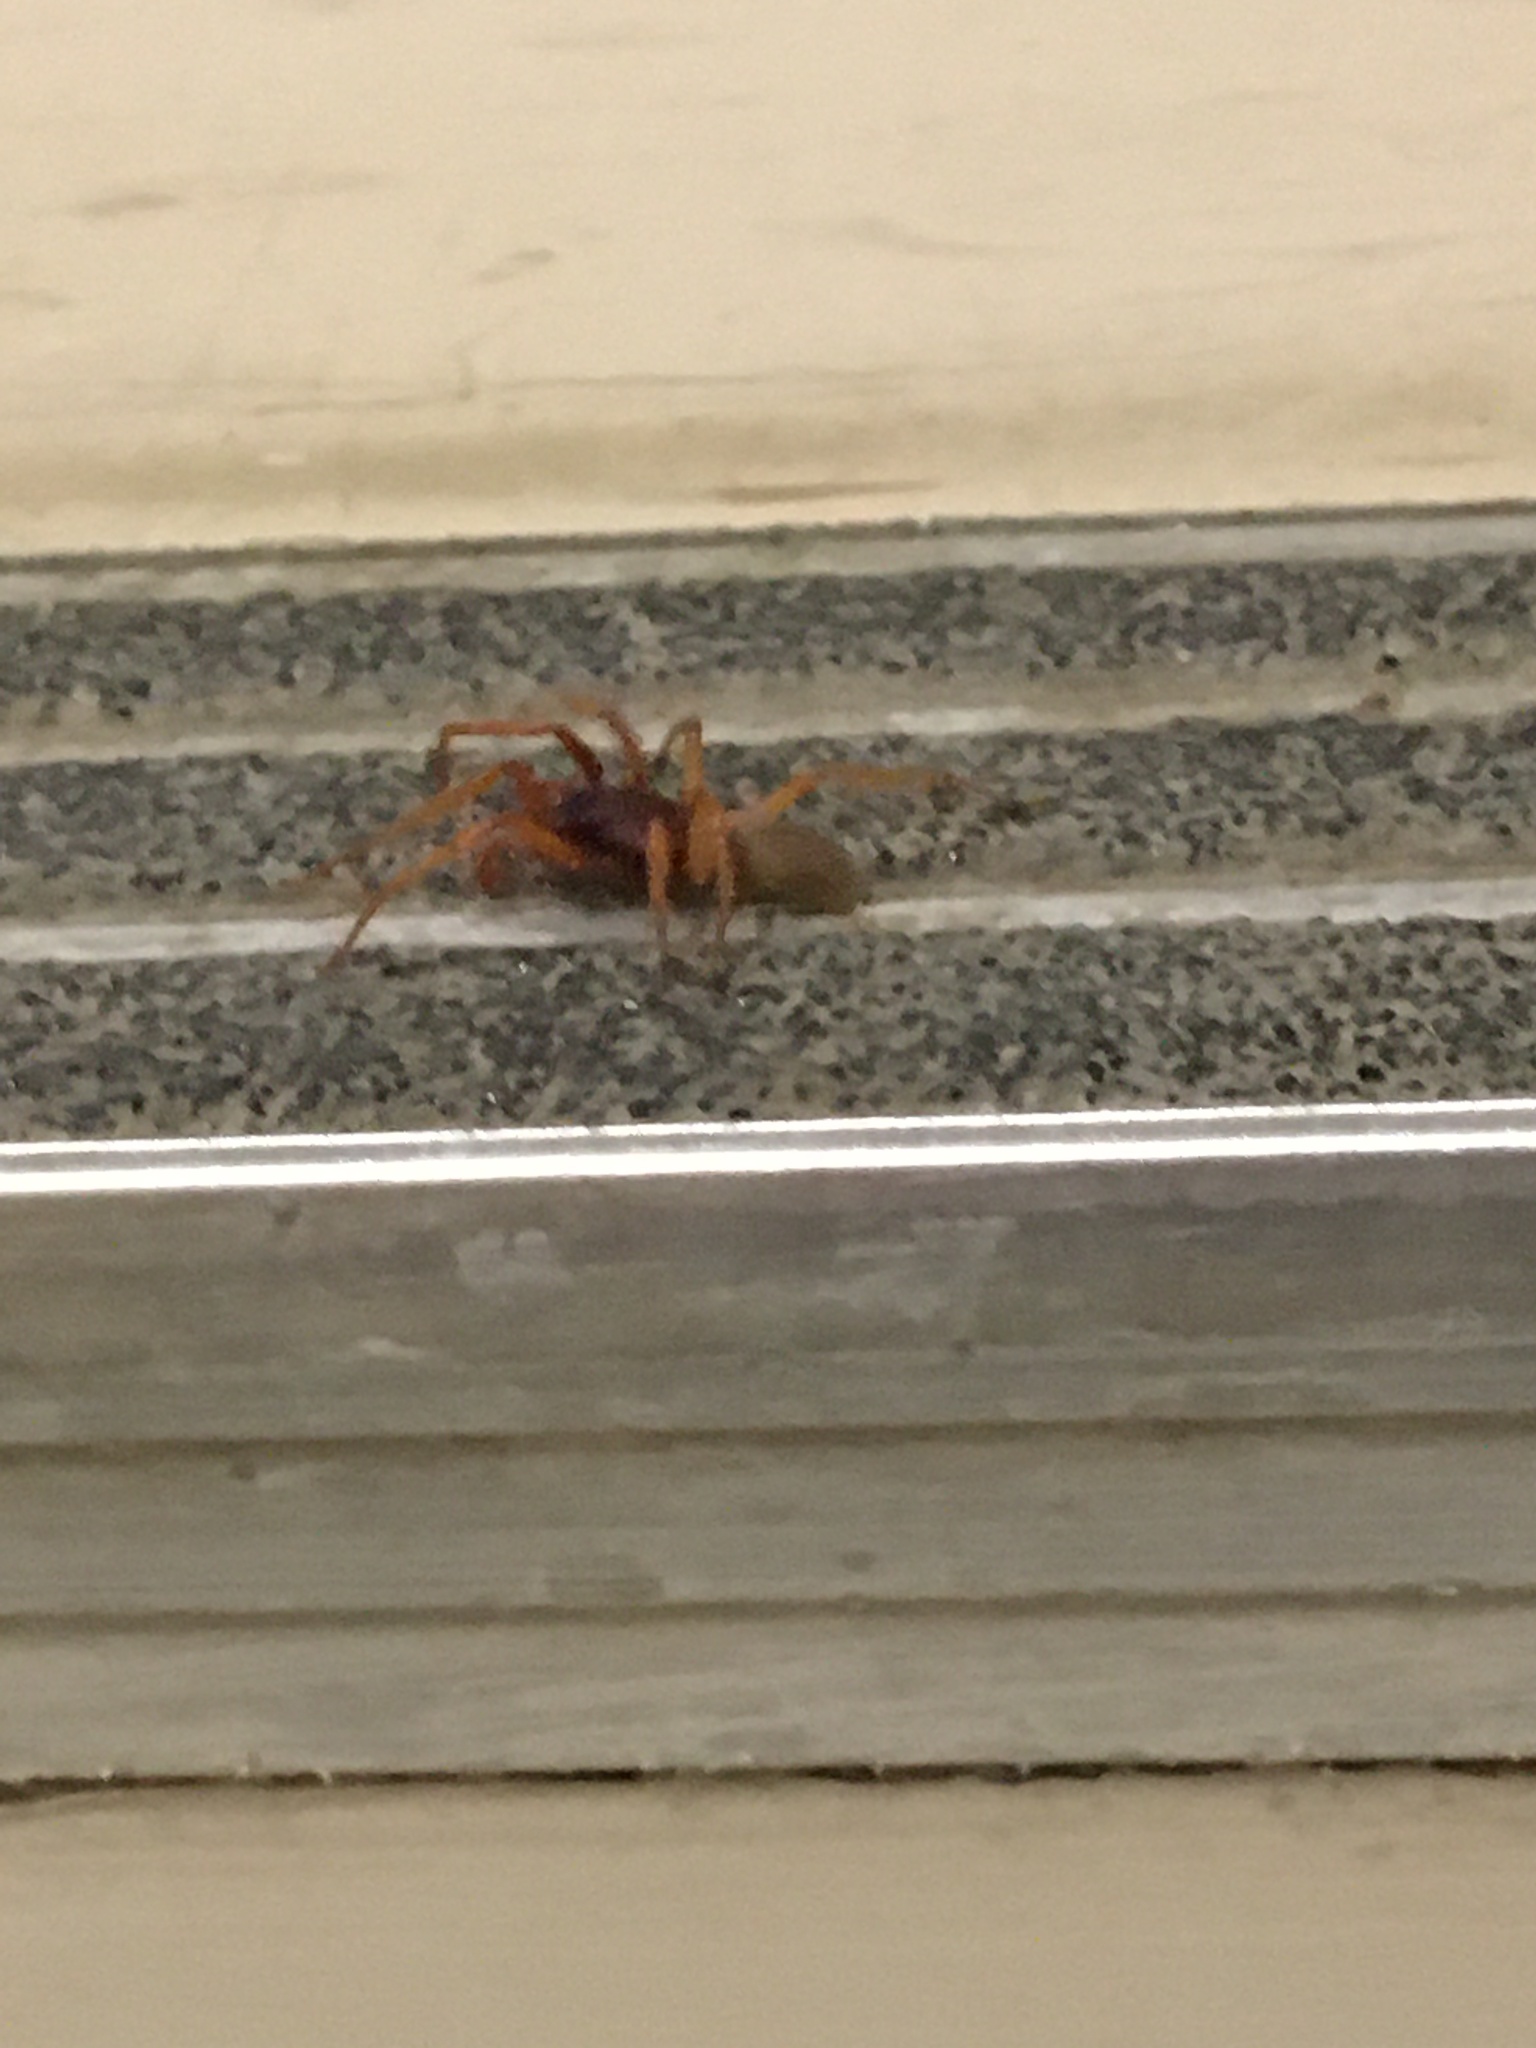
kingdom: Animalia
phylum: Arthropoda
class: Arachnida
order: Araneae
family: Dysderidae
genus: Dysdera
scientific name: Dysdera crocata
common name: Woodlouse spider
